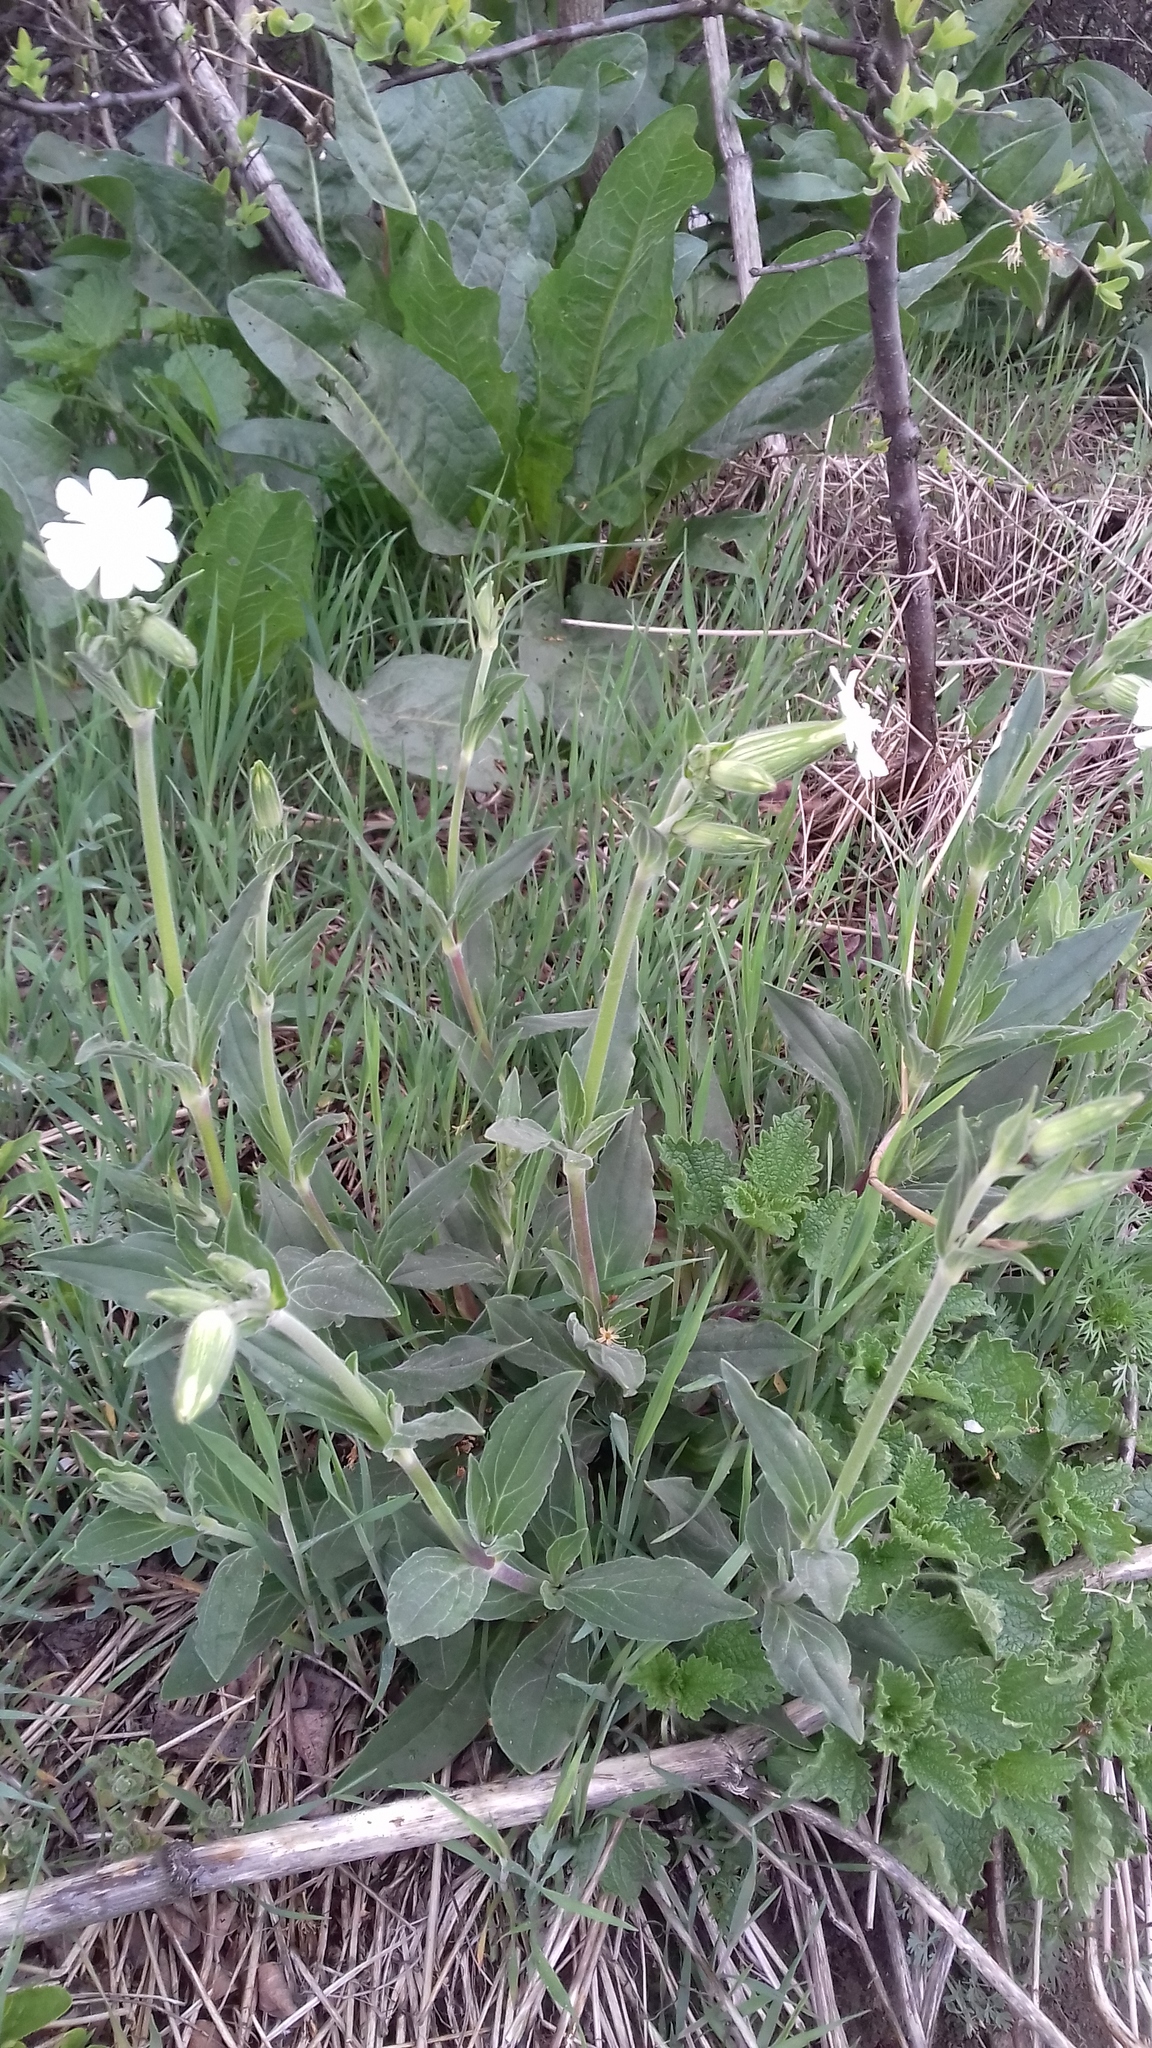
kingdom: Plantae
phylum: Tracheophyta
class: Magnoliopsida
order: Caryophyllales
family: Caryophyllaceae
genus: Silene
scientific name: Silene latifolia
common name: White campion
